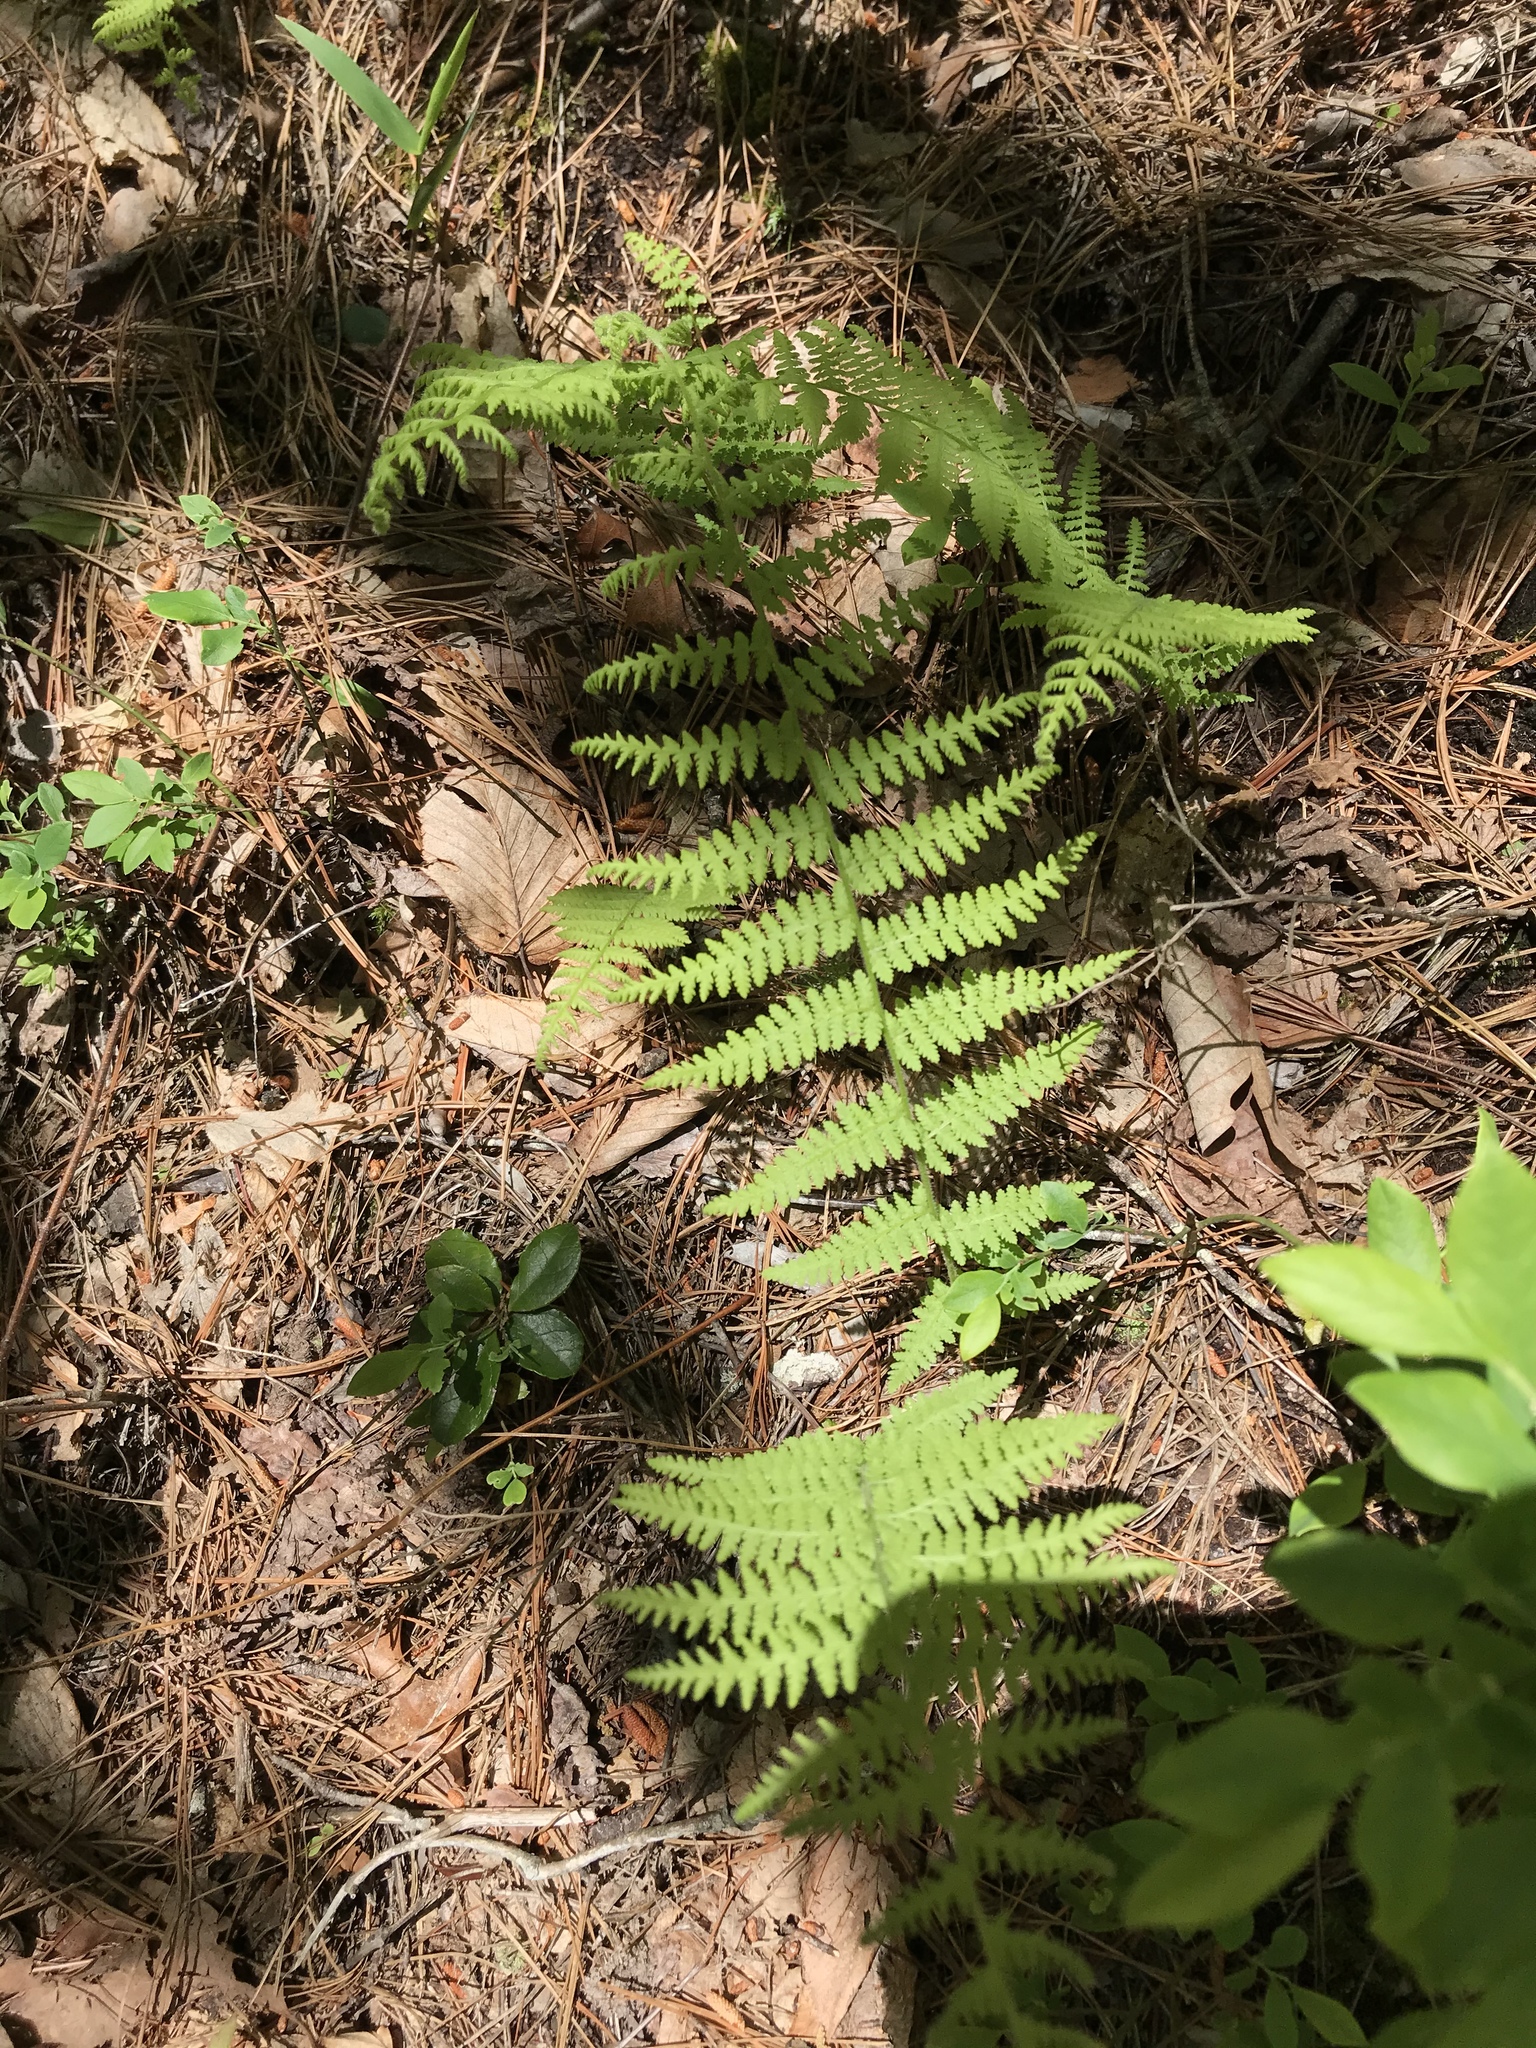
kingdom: Plantae
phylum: Tracheophyta
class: Polypodiopsida
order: Polypodiales
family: Dennstaedtiaceae
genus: Sitobolium
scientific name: Sitobolium punctilobum
